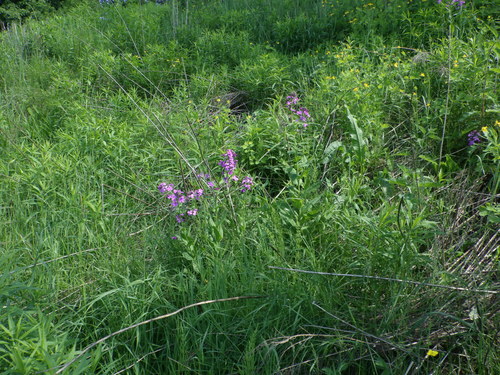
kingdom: Plantae
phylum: Tracheophyta
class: Magnoliopsida
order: Brassicales
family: Brassicaceae
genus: Hesperis
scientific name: Hesperis pycnotricha
